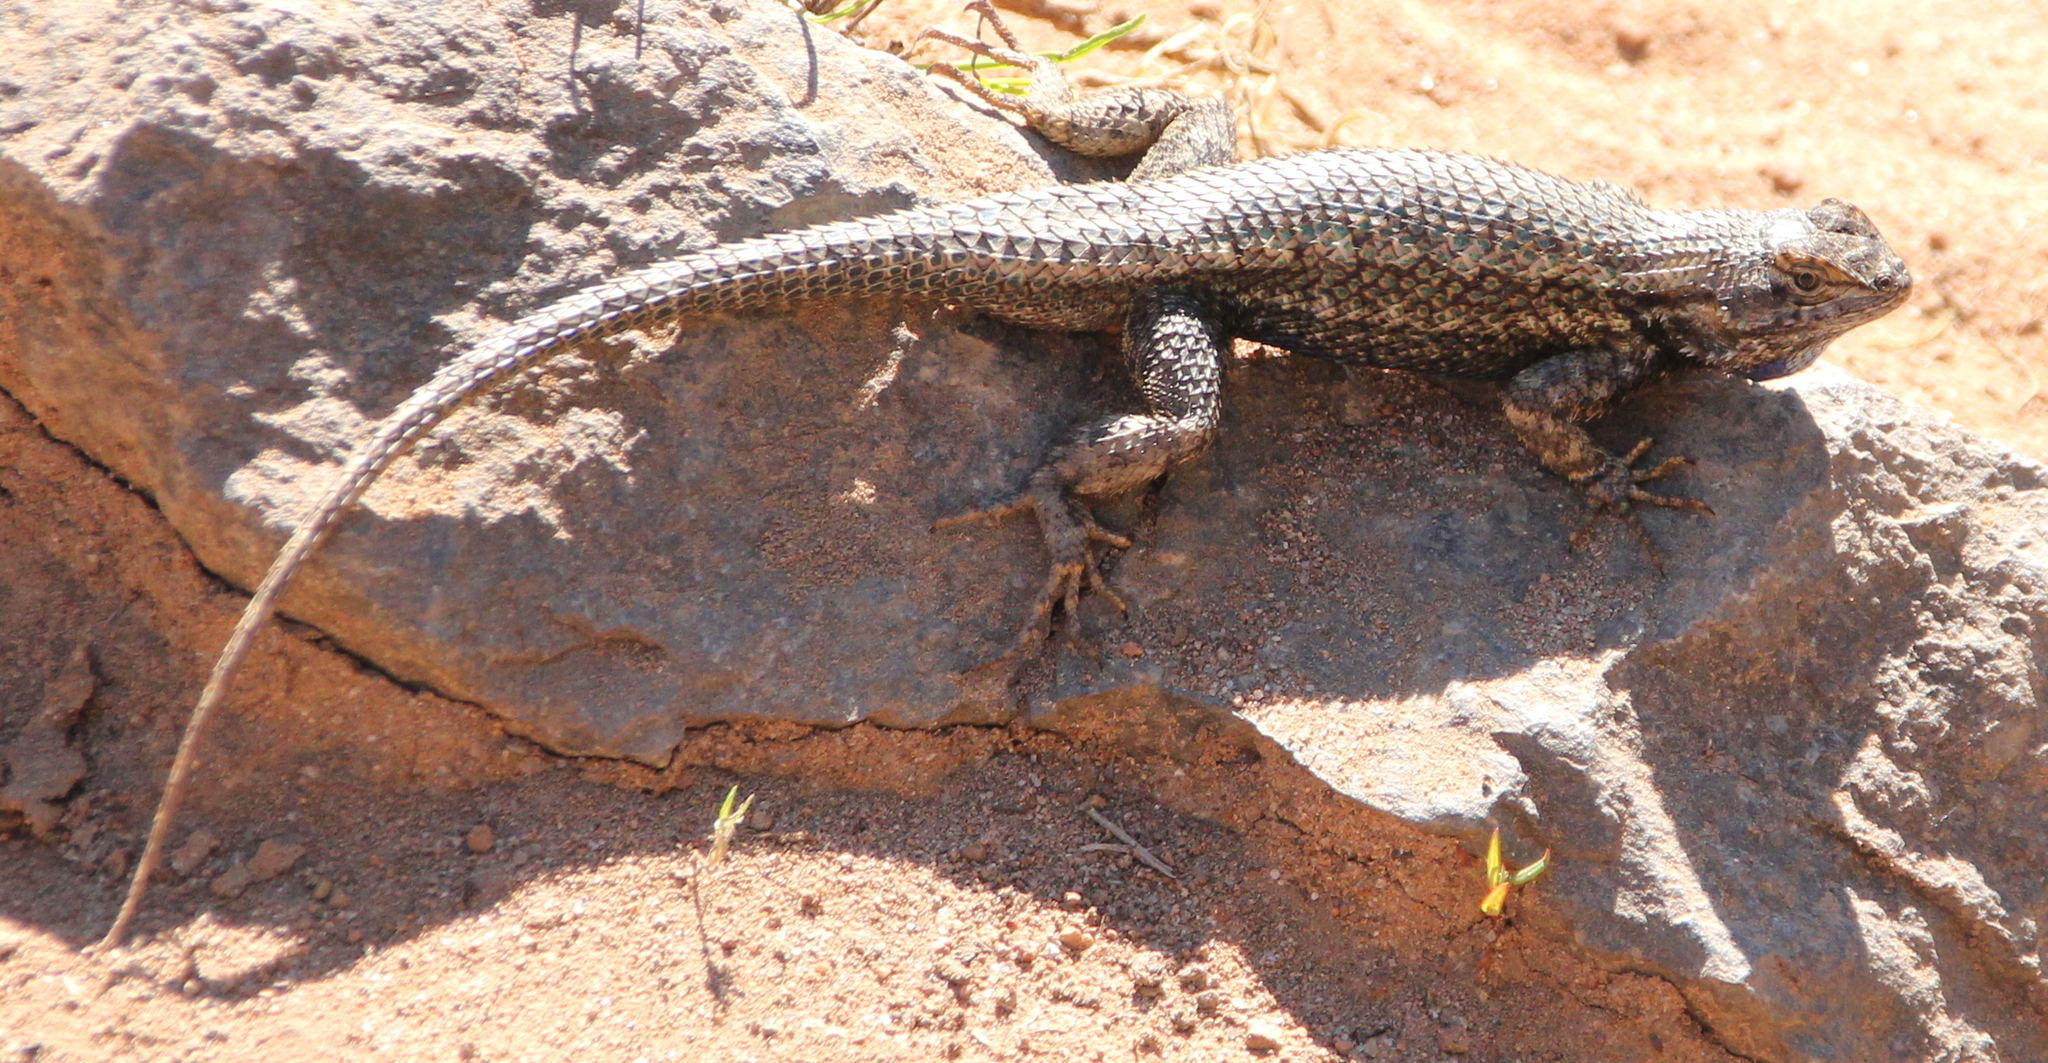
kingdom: Animalia
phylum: Chordata
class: Squamata
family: Phrynosomatidae
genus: Sceloporus
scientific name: Sceloporus occidentalis
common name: Western fence lizard
